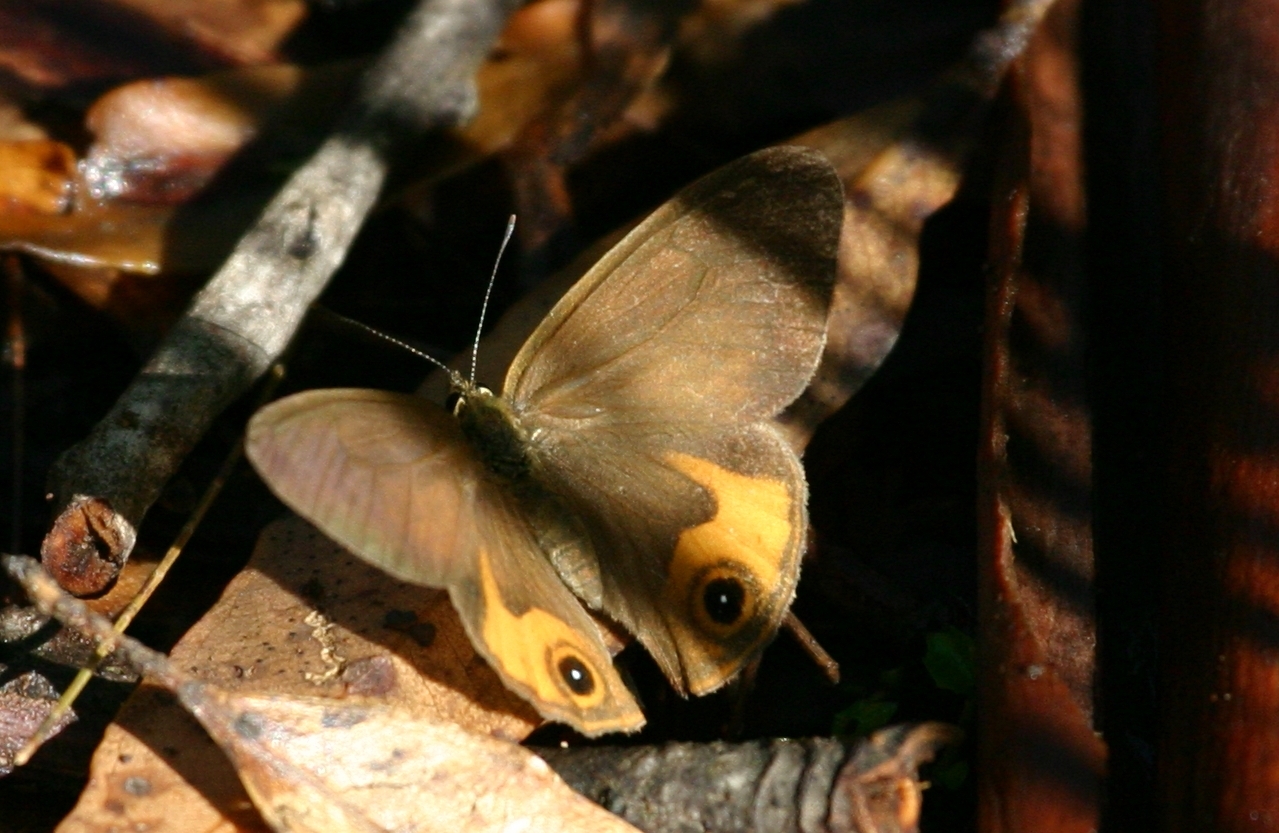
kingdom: Animalia
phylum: Arthropoda
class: Insecta
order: Lepidoptera
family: Nymphalidae
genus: Hypocysta
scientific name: Hypocysta metirius
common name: Brown ringlet
